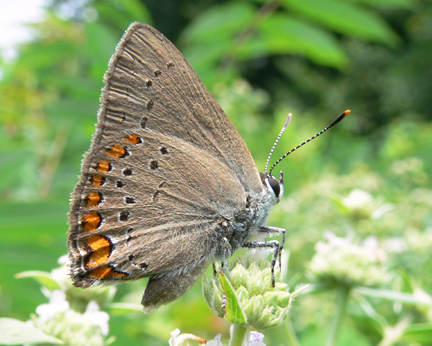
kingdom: Animalia
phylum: Arthropoda
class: Insecta
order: Lepidoptera
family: Lycaenidae
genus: Harkenclenus
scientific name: Harkenclenus titus
